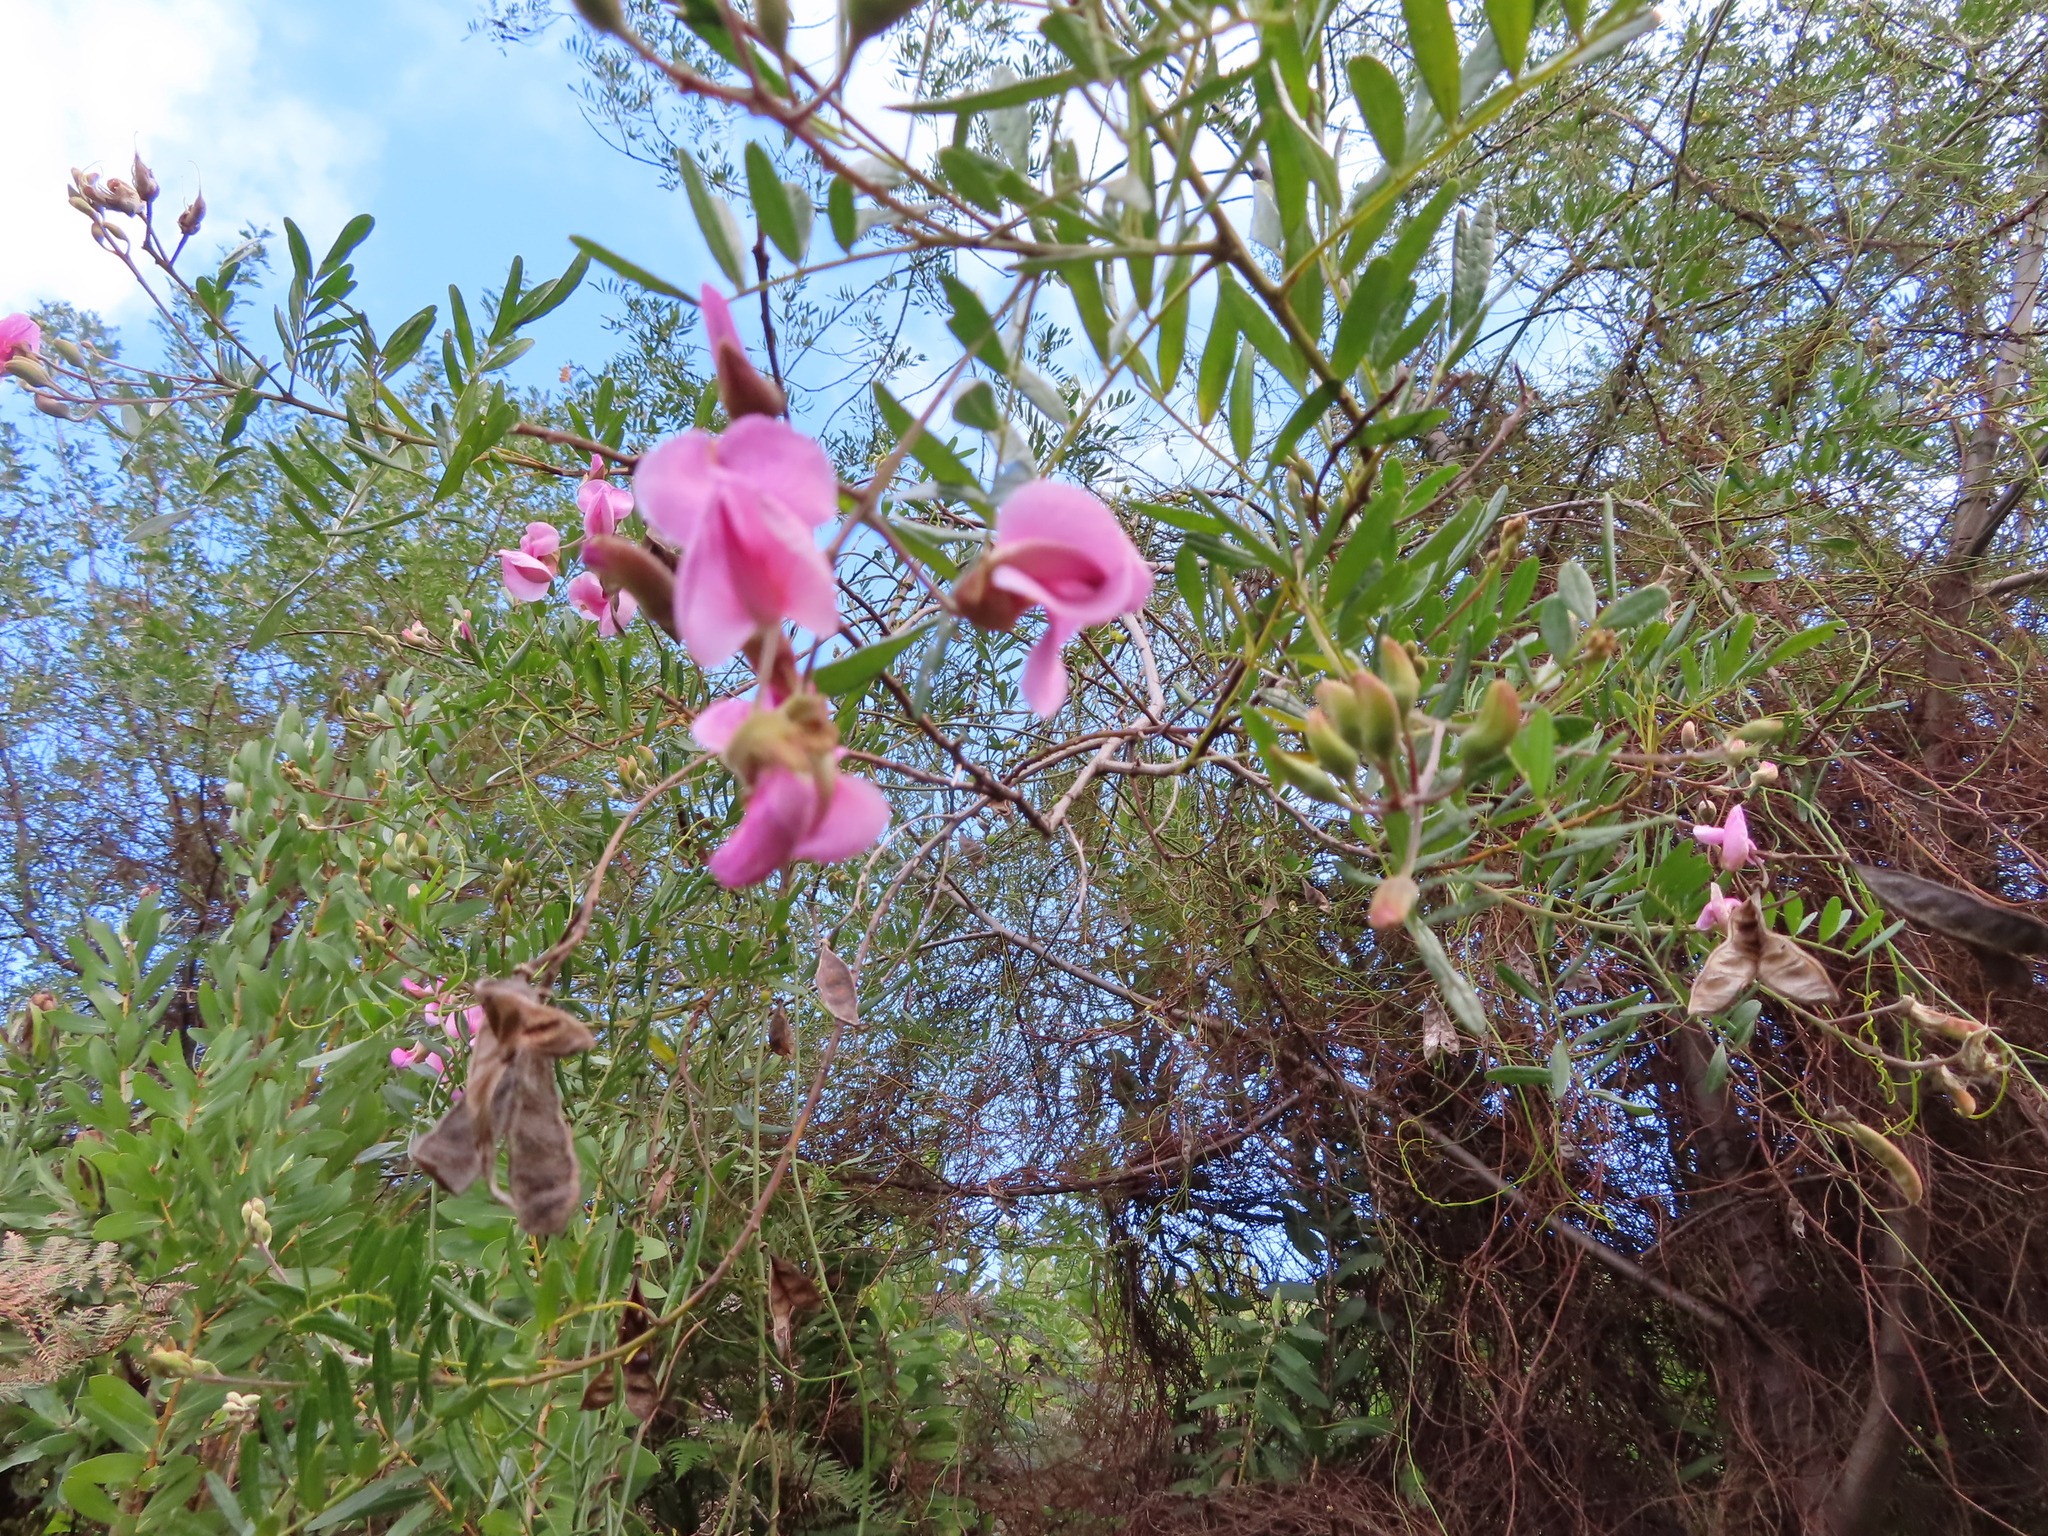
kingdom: Plantae
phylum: Tracheophyta
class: Magnoliopsida
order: Fabales
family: Fabaceae
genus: Virgilia
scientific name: Virgilia oroboides
